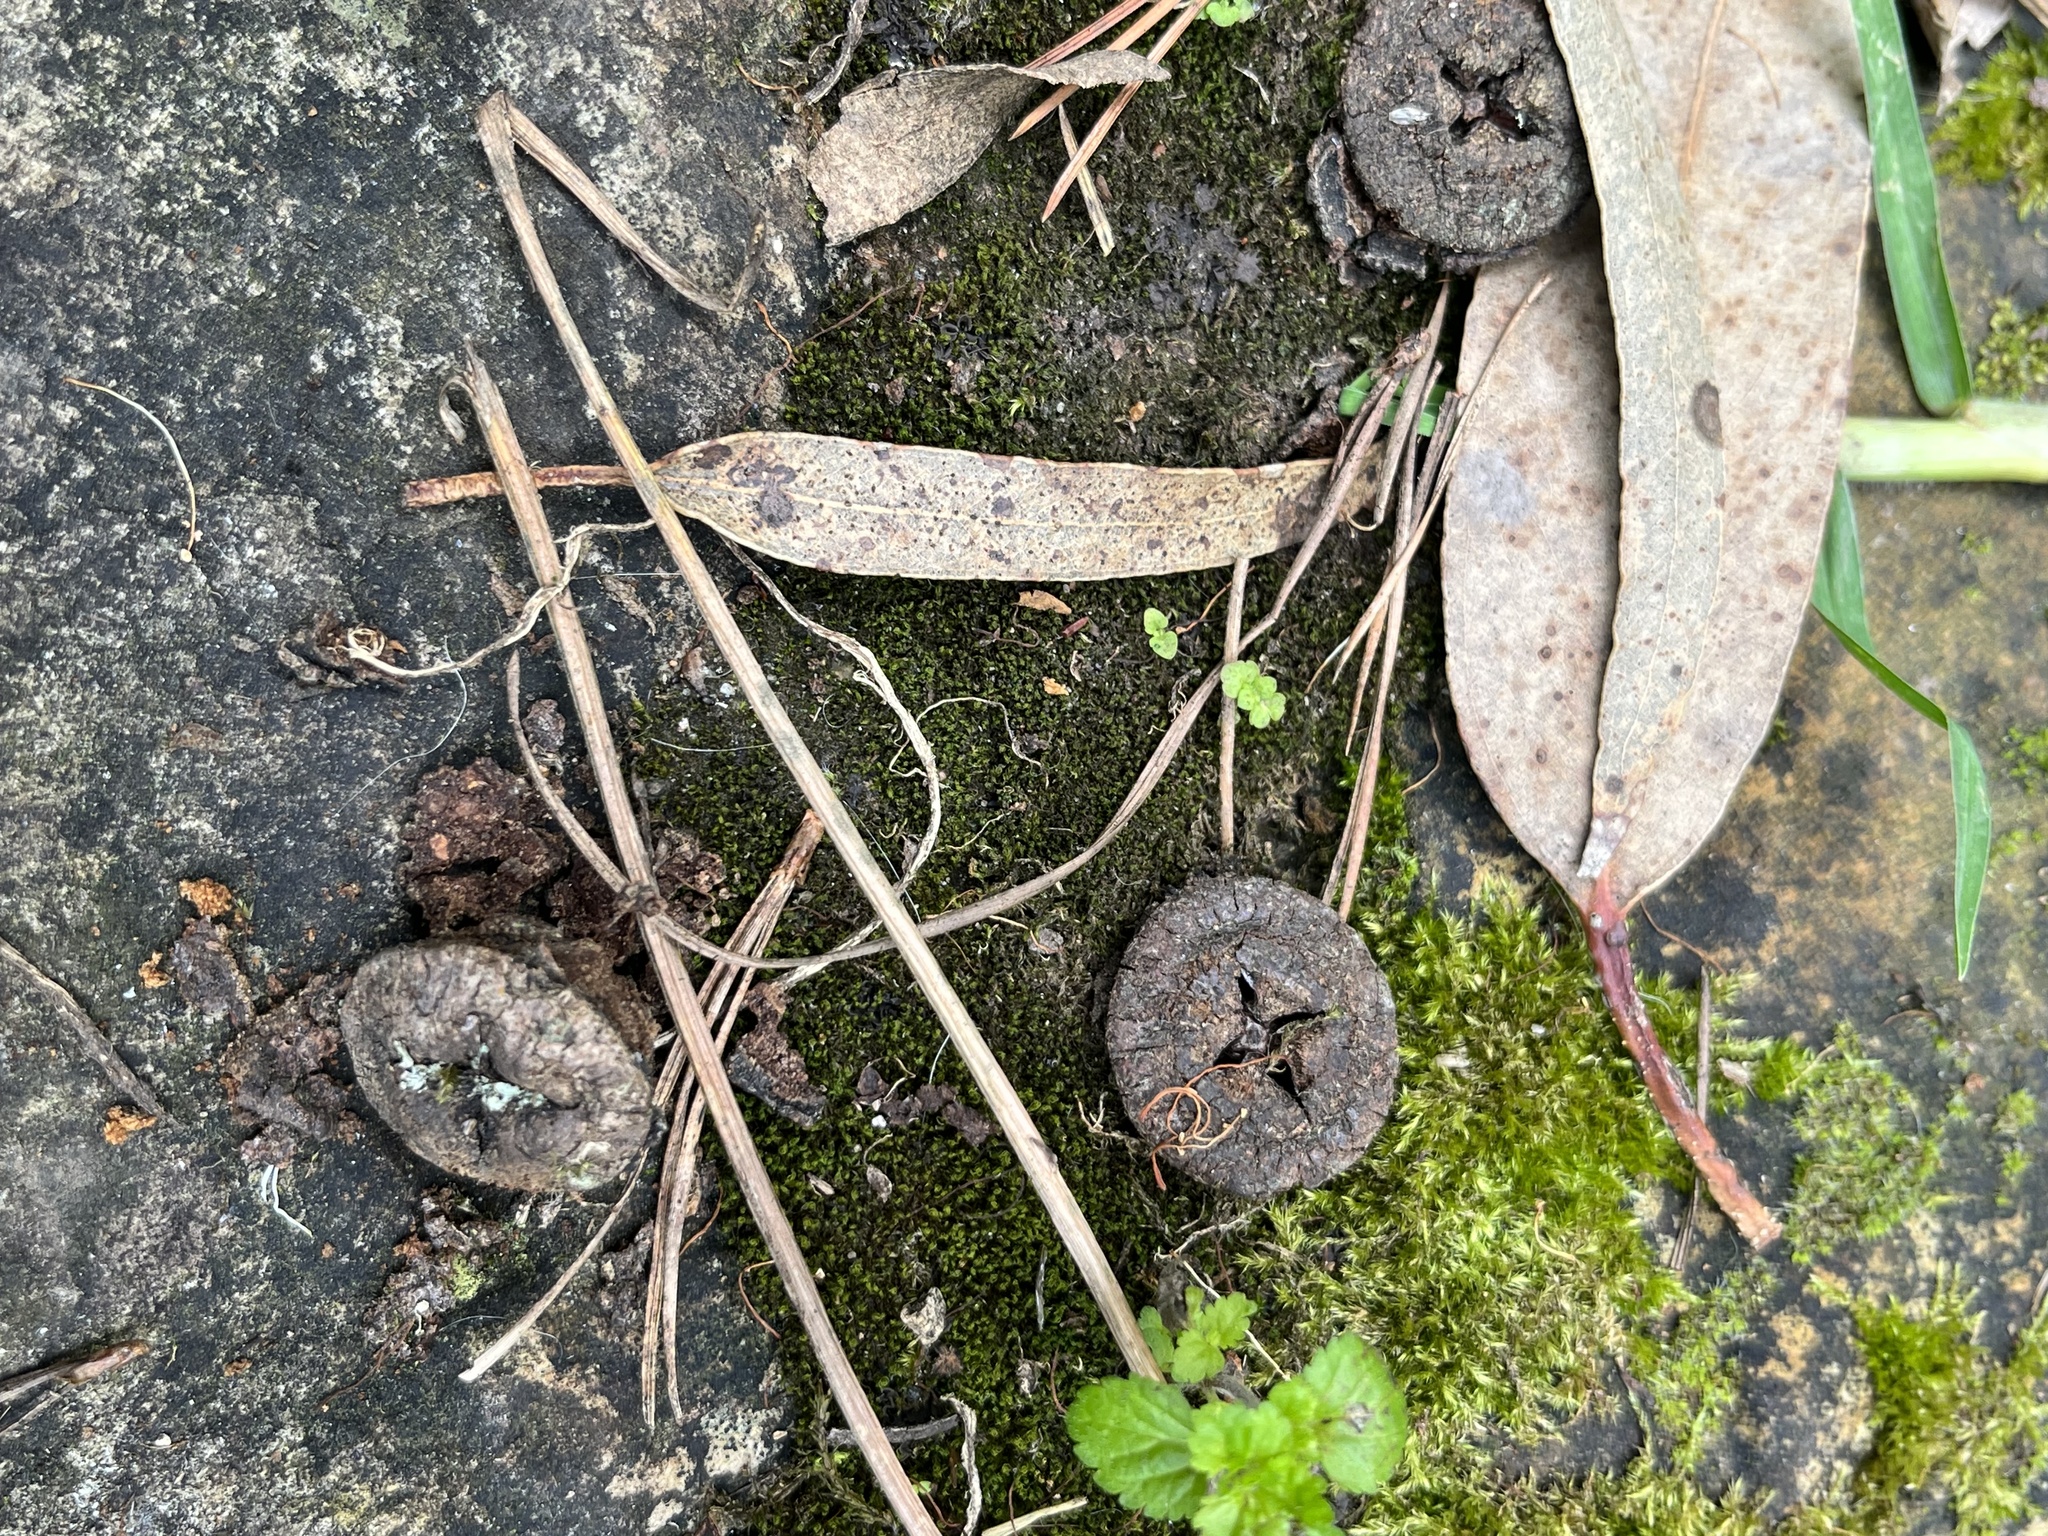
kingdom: Plantae
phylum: Tracheophyta
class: Magnoliopsida
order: Myrtales
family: Myrtaceae
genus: Eucalyptus
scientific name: Eucalyptus globulus
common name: Southern blue-gum
